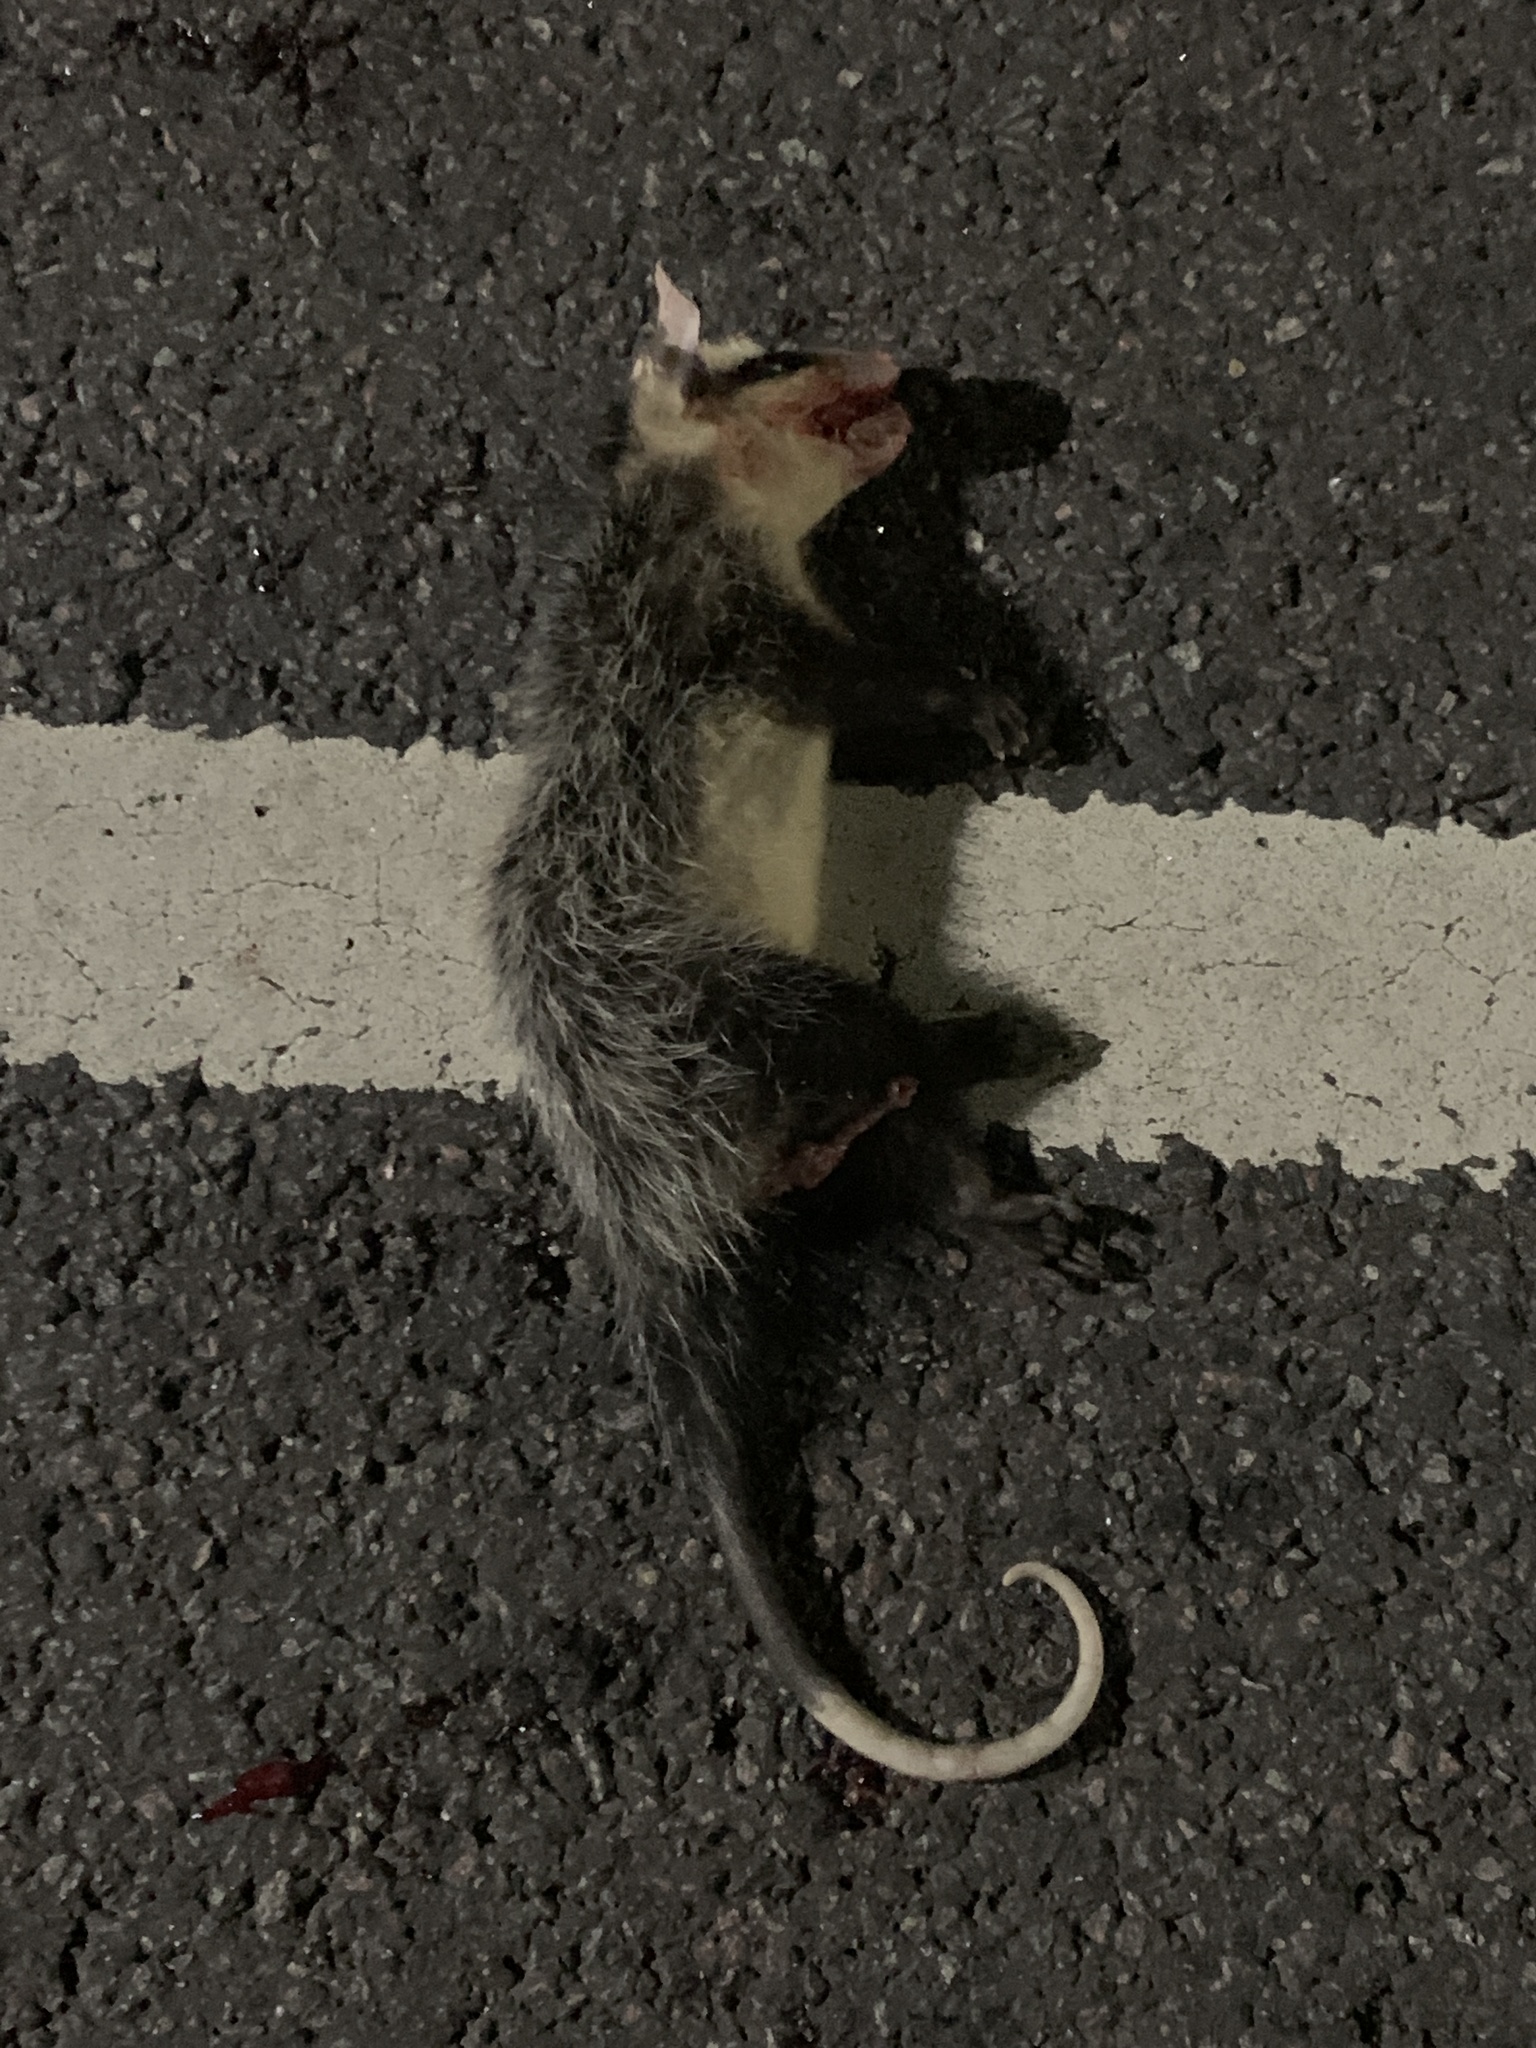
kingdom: Animalia
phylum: Chordata
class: Mammalia
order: Didelphimorphia
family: Didelphidae
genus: Didelphis
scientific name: Didelphis albiventris
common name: White-eared opossum
